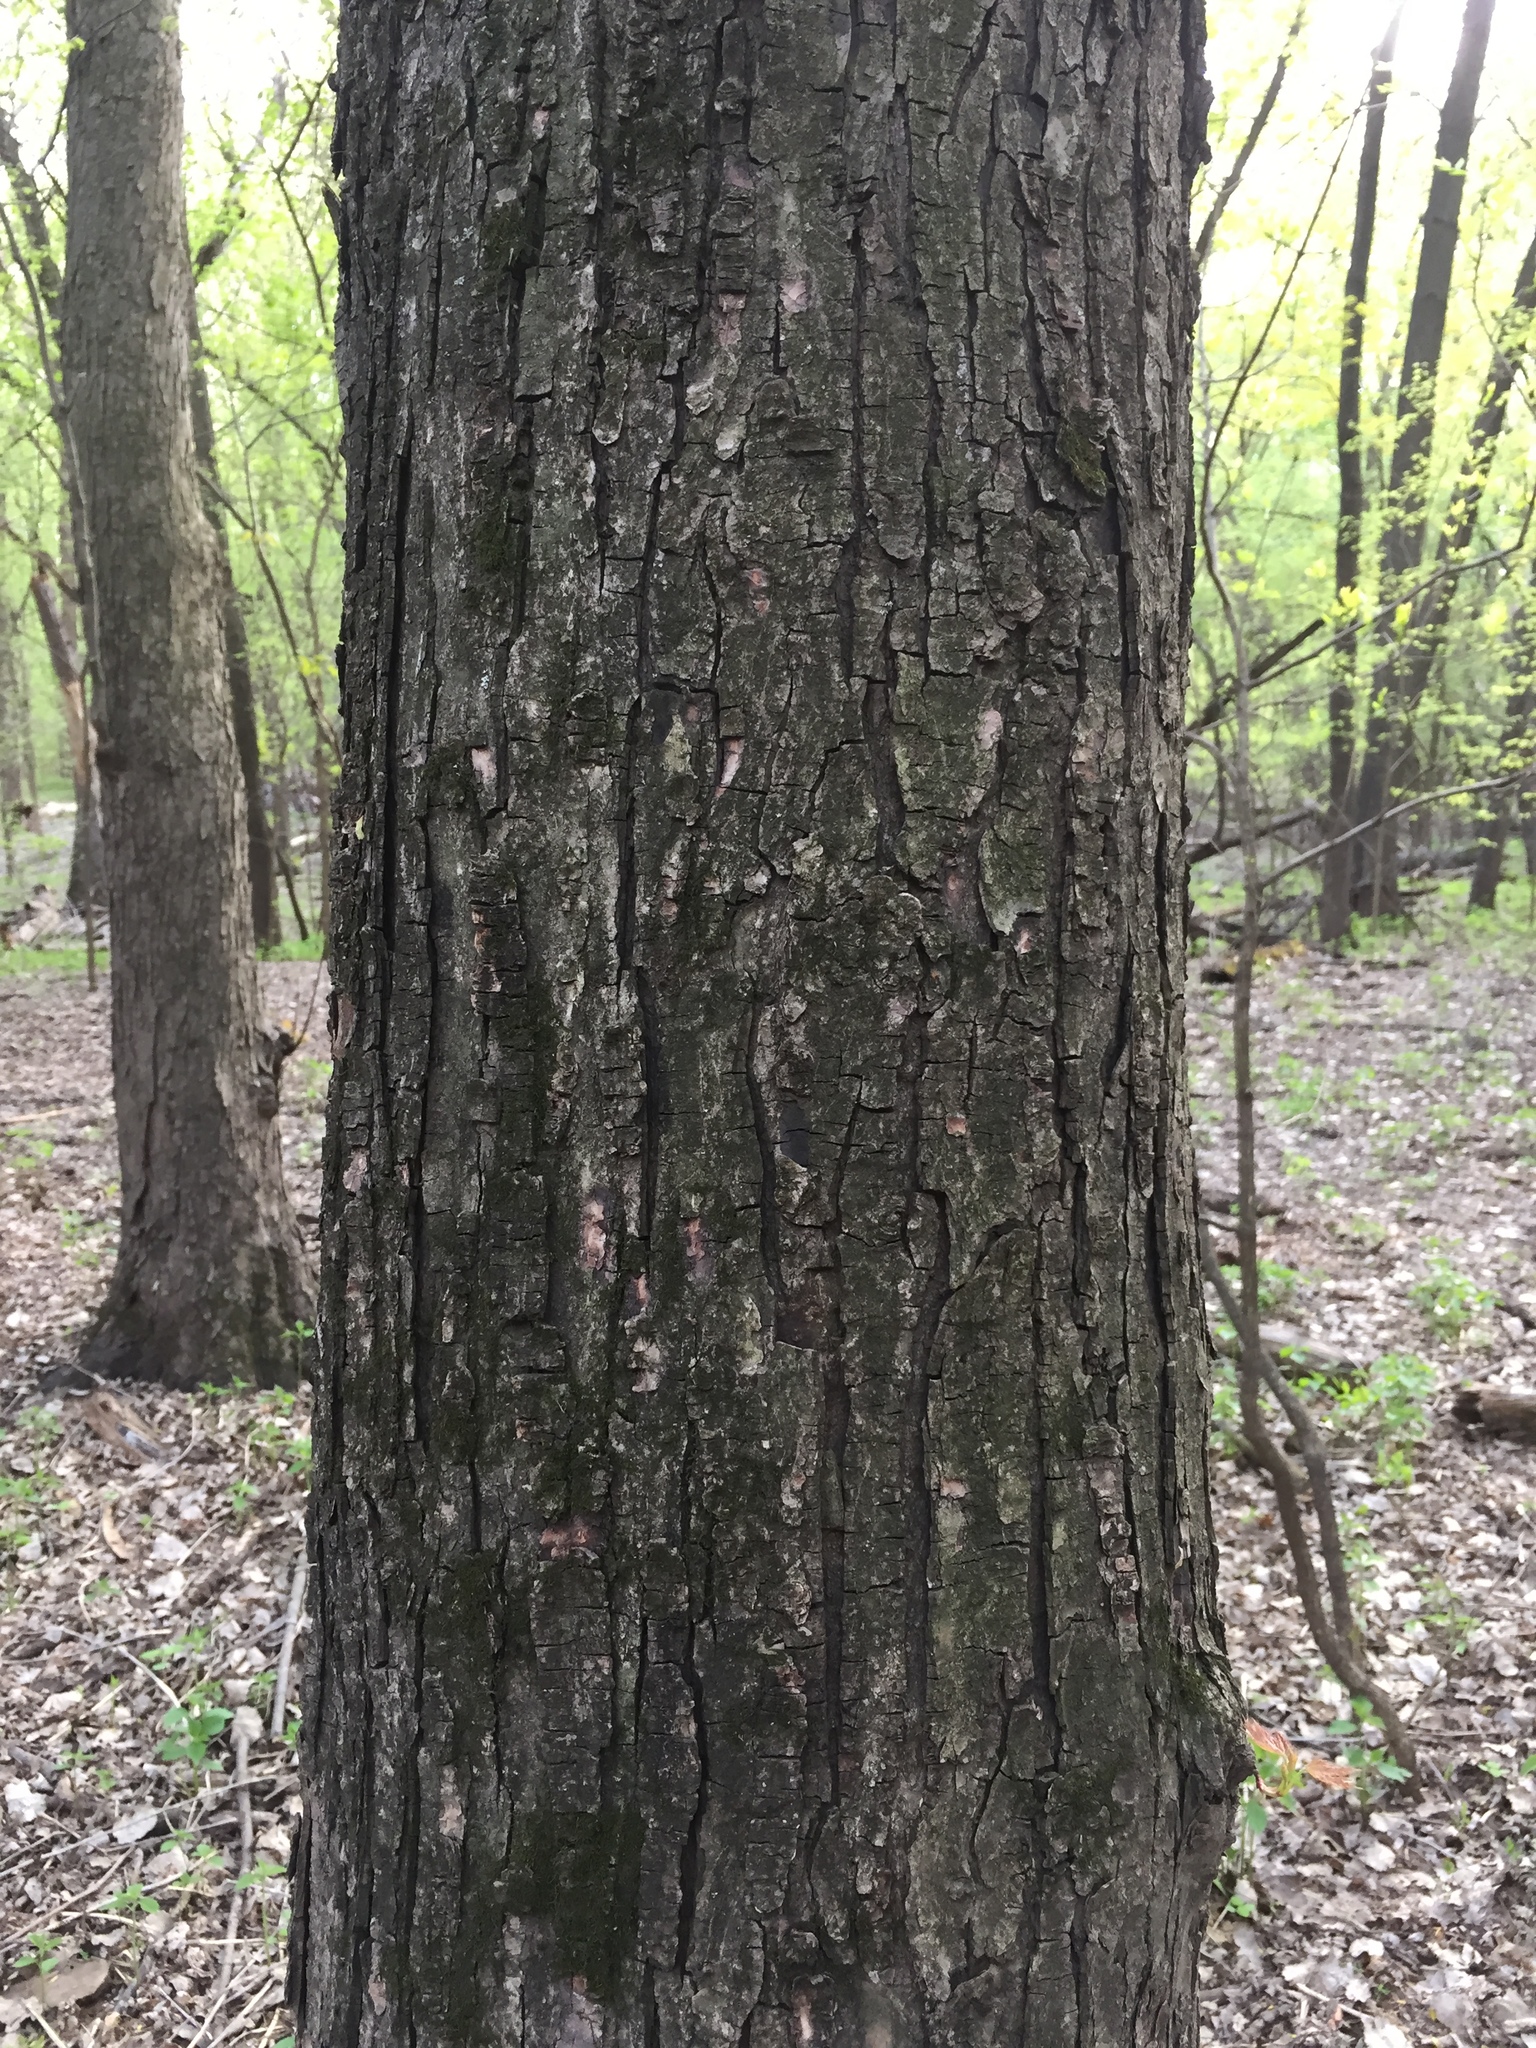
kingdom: Plantae
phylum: Tracheophyta
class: Magnoliopsida
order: Sapindales
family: Sapindaceae
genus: Acer
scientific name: Acer saccharinum
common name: Silver maple
